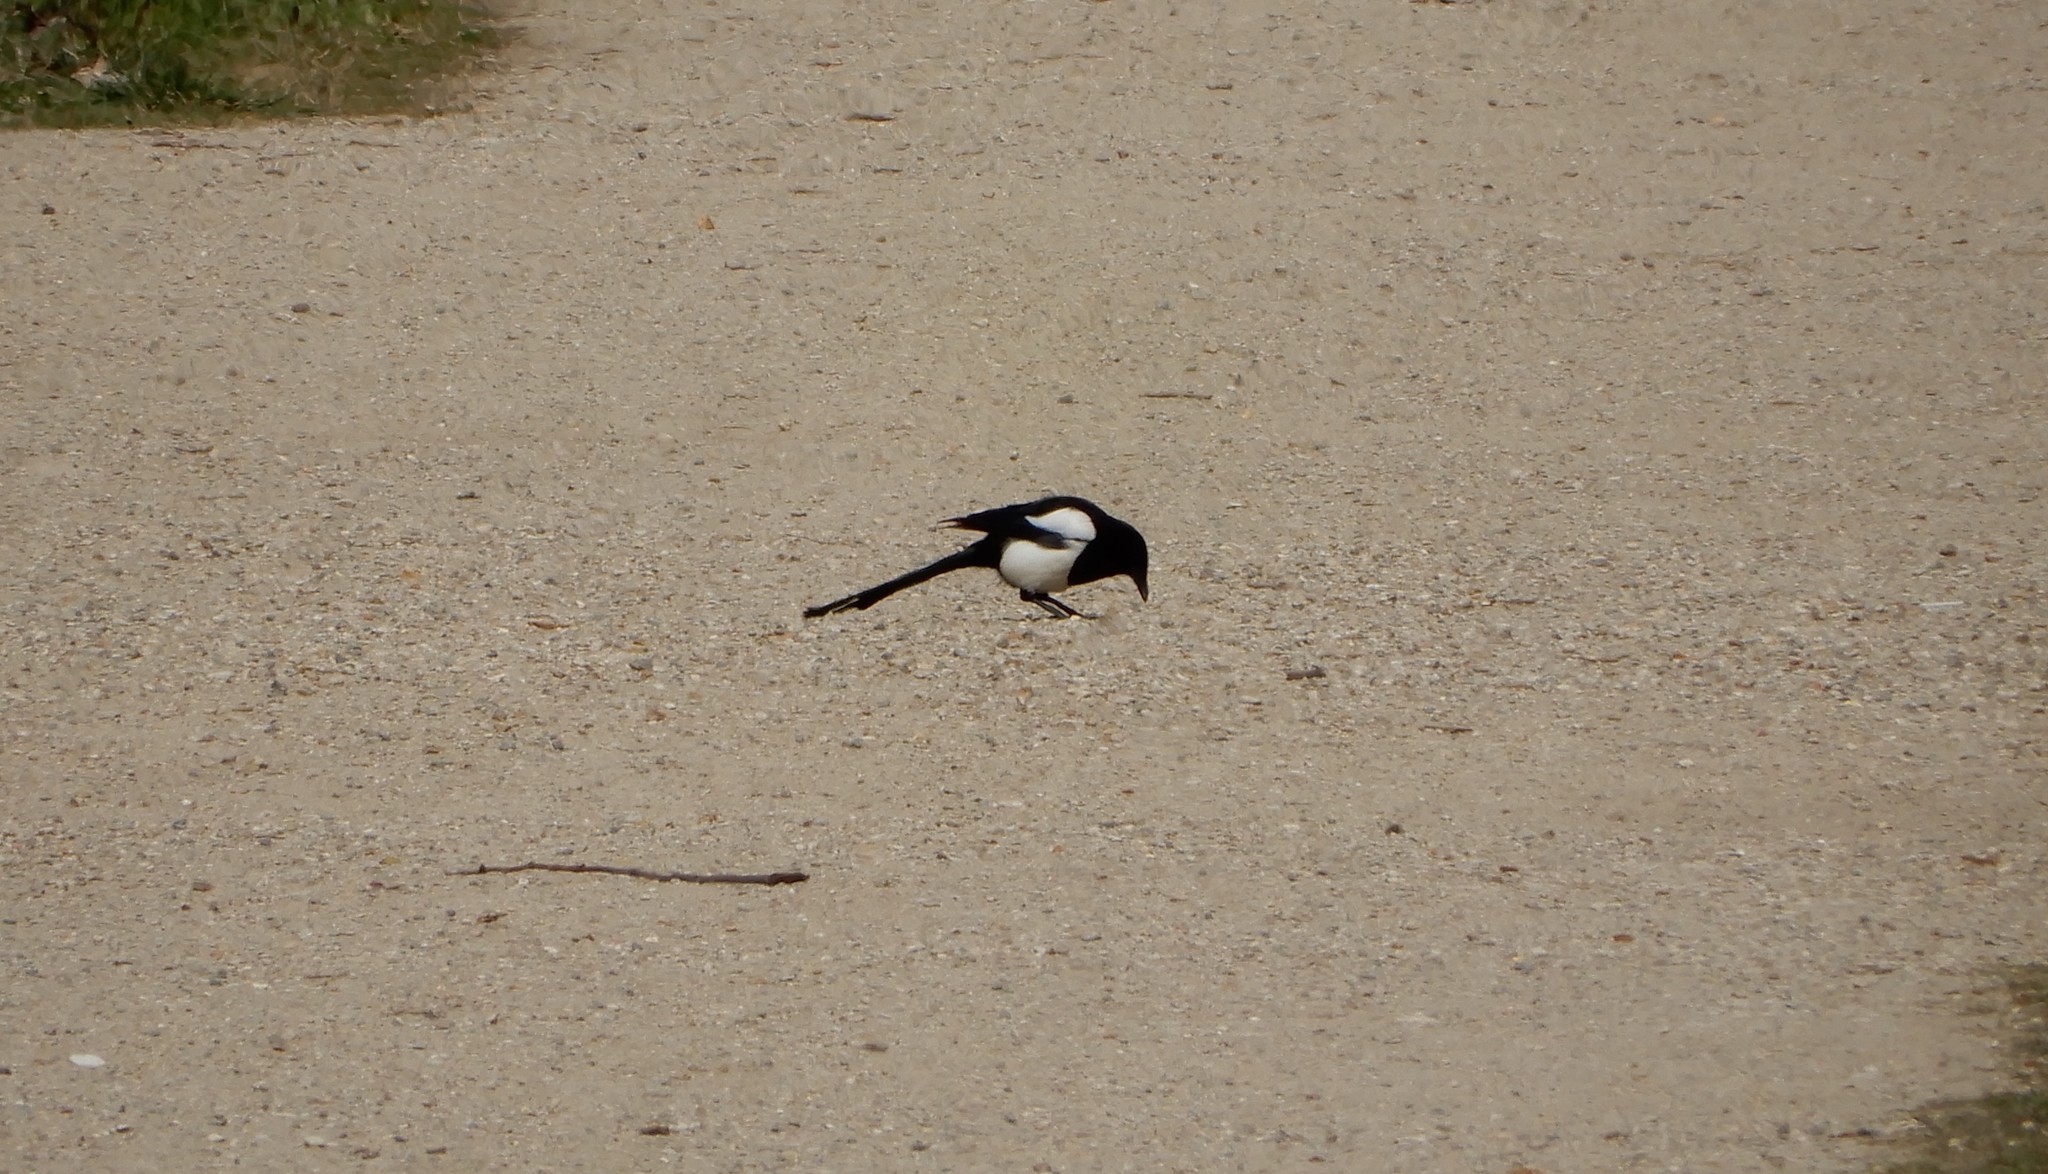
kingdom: Animalia
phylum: Chordata
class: Aves
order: Passeriformes
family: Corvidae
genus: Pica
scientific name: Pica pica
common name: Eurasian magpie
